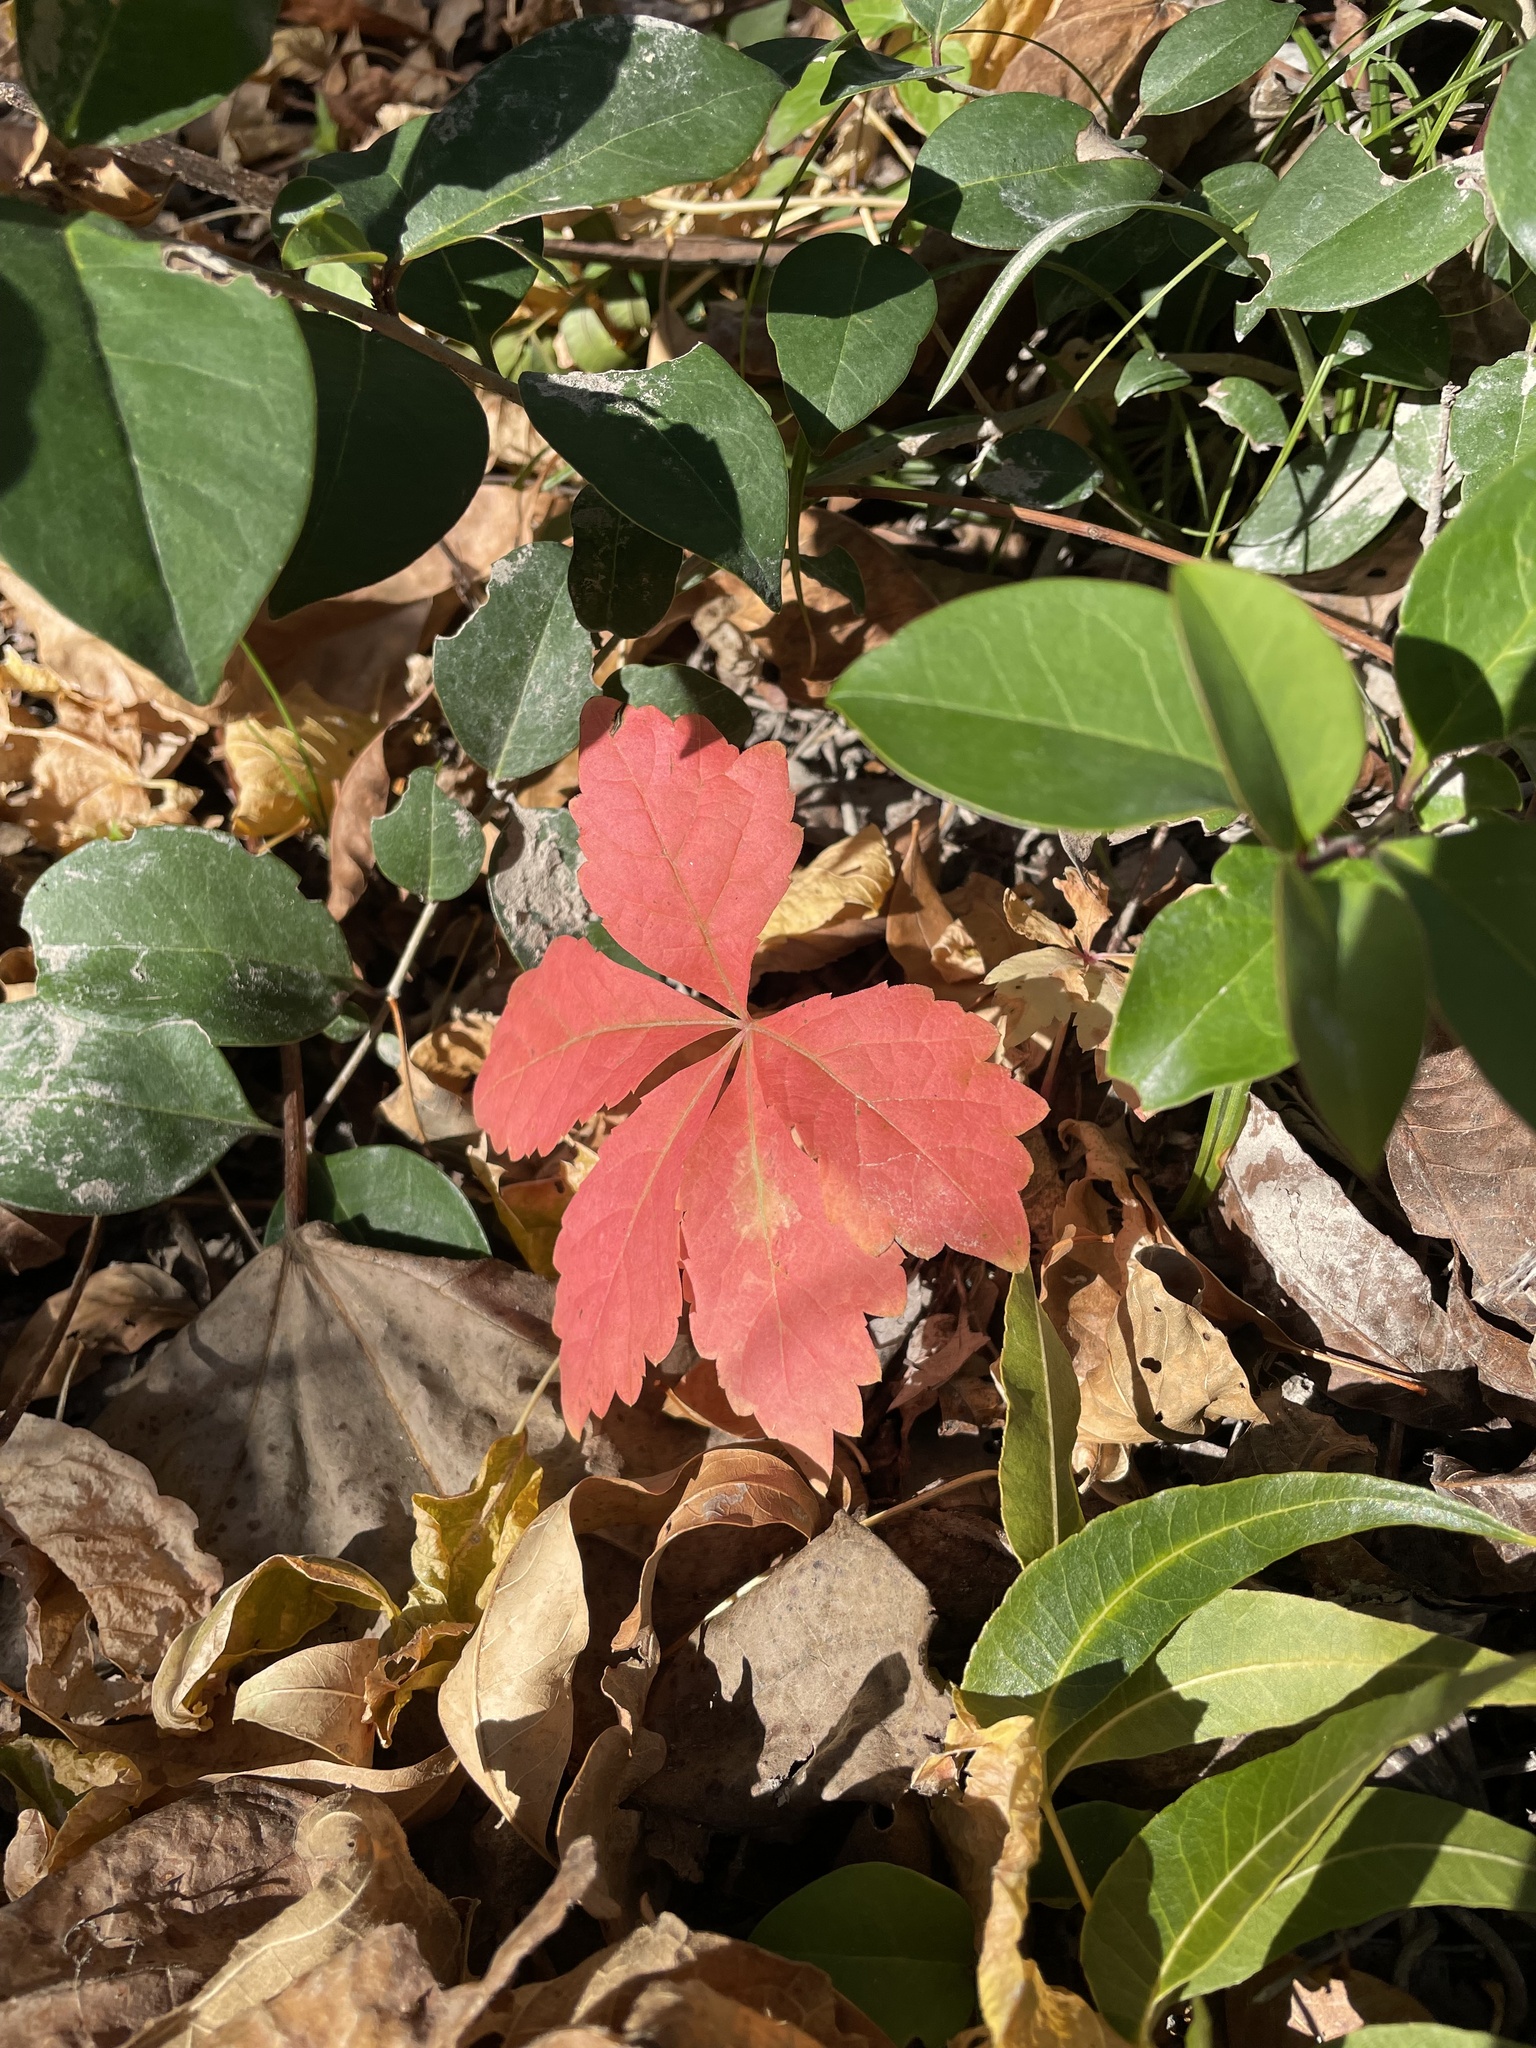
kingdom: Plantae
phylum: Tracheophyta
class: Magnoliopsida
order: Vitales
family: Vitaceae
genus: Parthenocissus
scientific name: Parthenocissus quinquefolia
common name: Virginia-creeper
